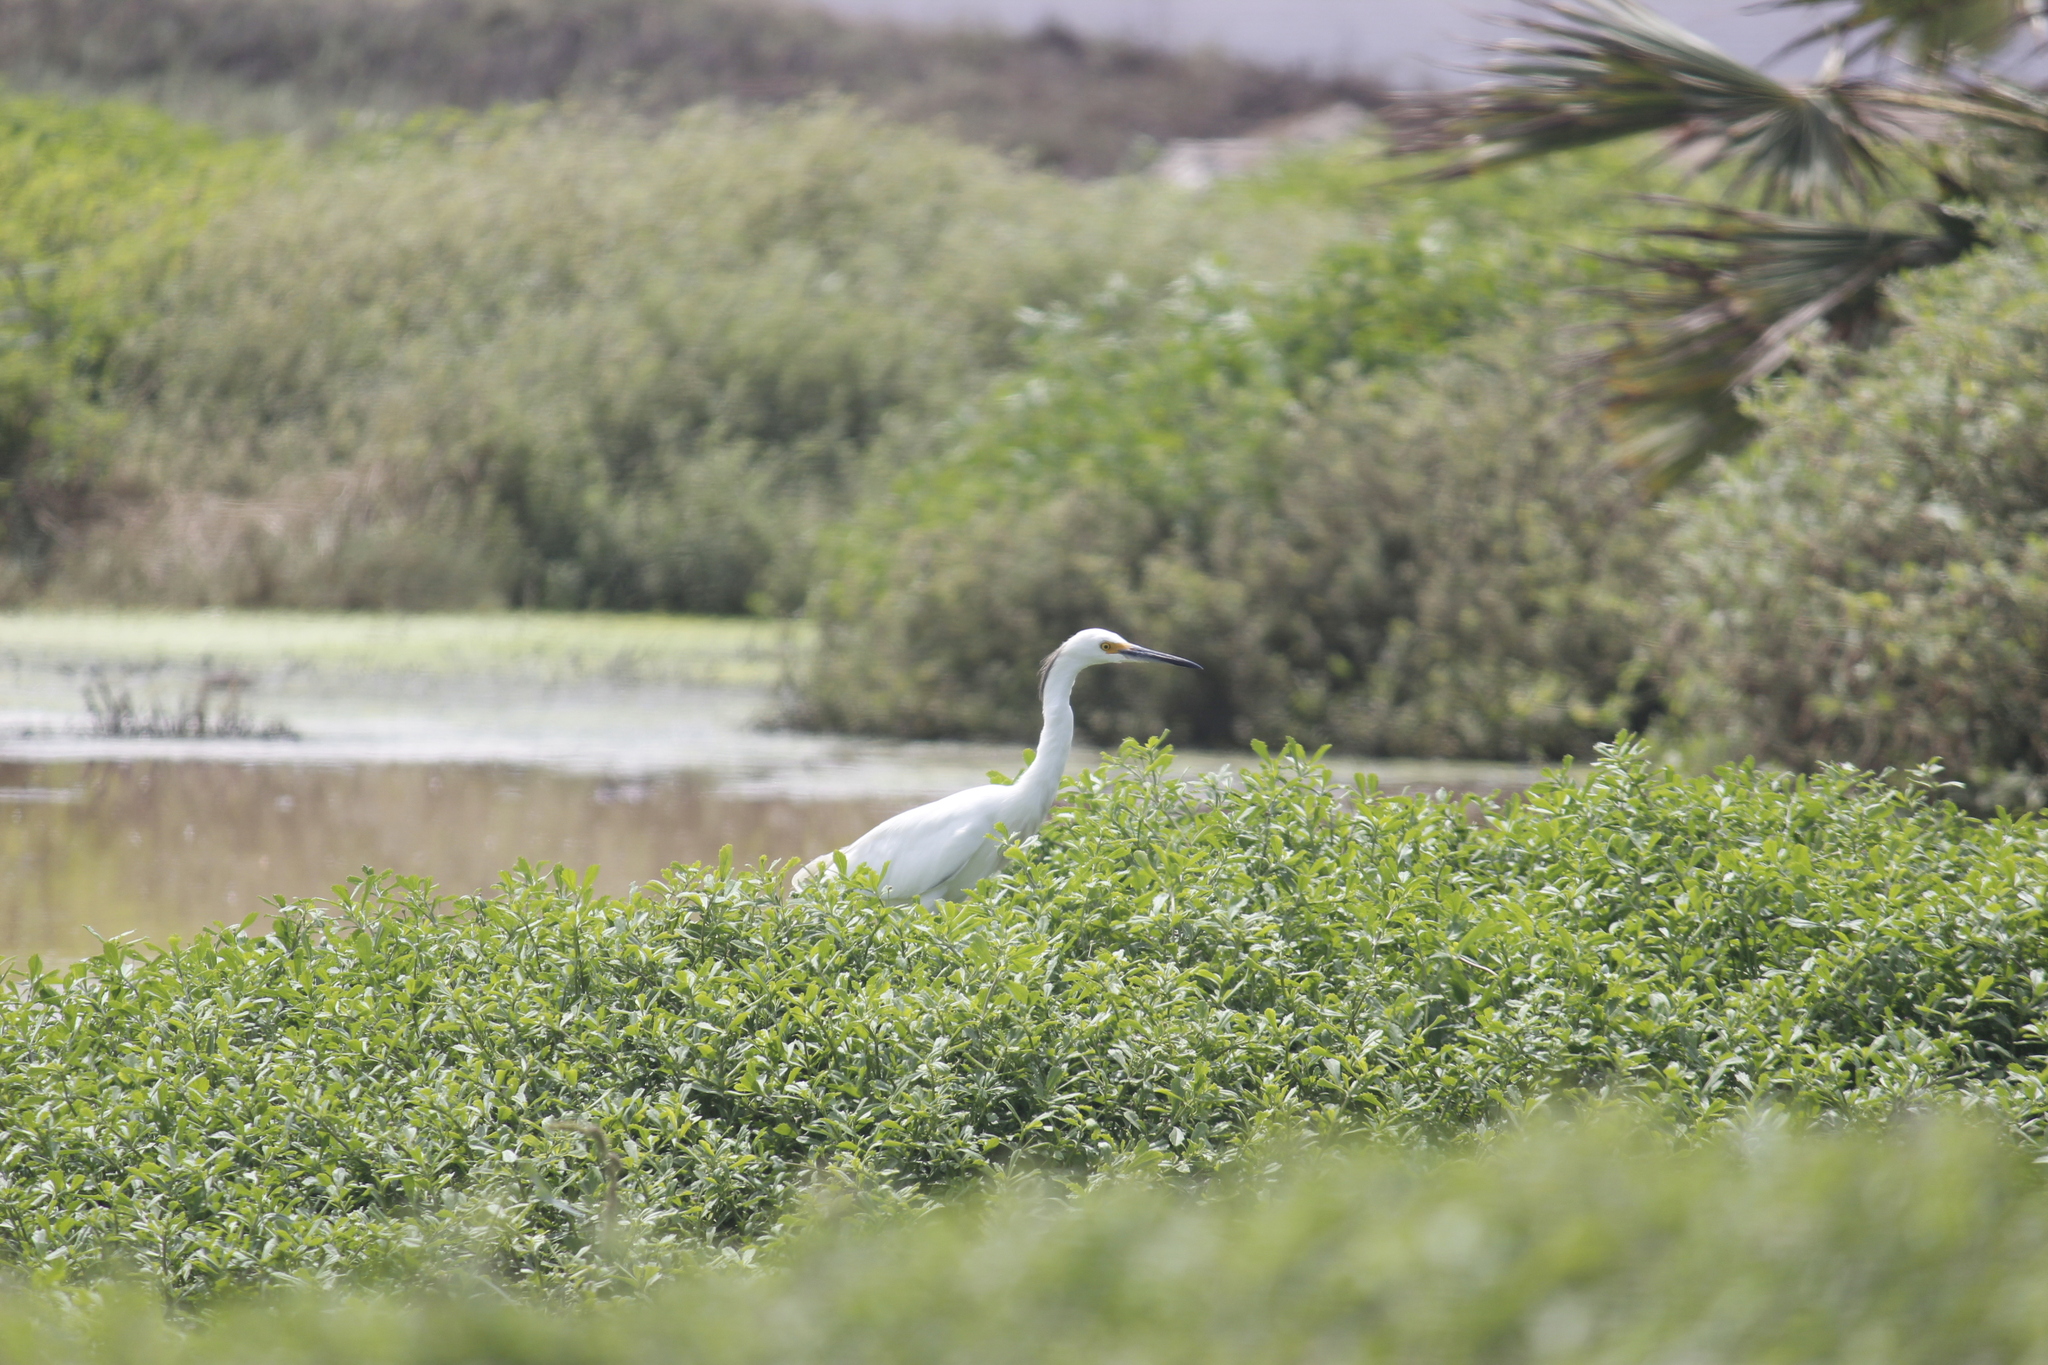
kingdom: Animalia
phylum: Chordata
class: Aves
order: Pelecaniformes
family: Ardeidae
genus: Egretta
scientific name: Egretta thula
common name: Snowy egret
